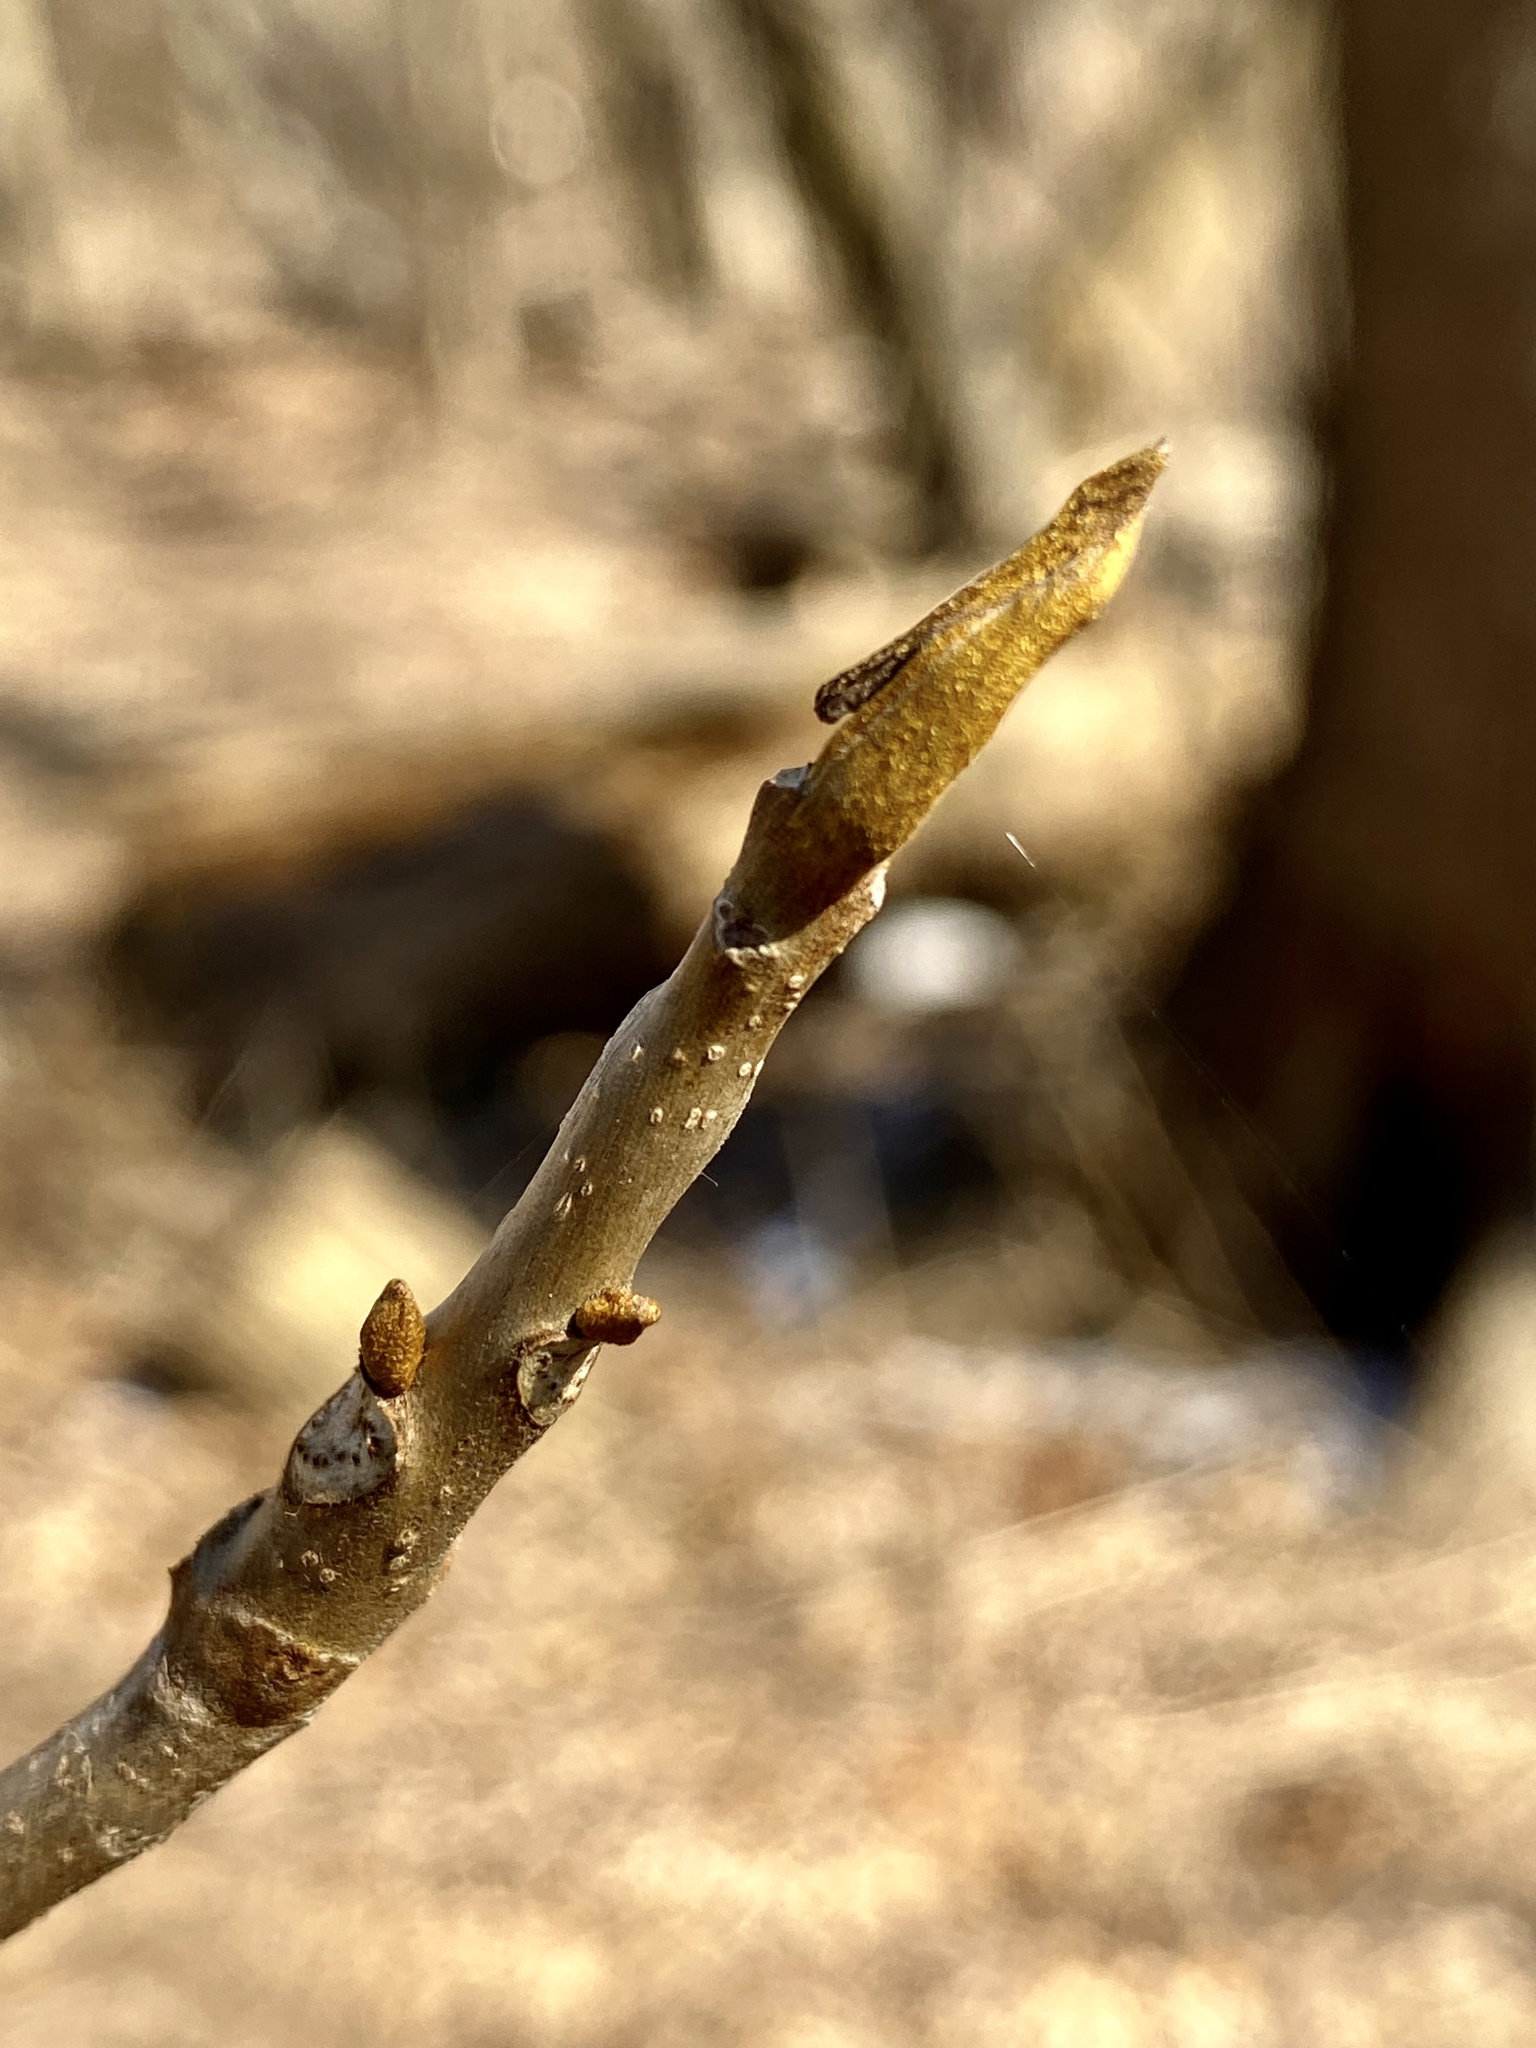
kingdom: Plantae
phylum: Tracheophyta
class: Magnoliopsida
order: Fagales
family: Juglandaceae
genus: Carya
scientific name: Carya cordiformis
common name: Bitternut hickory
